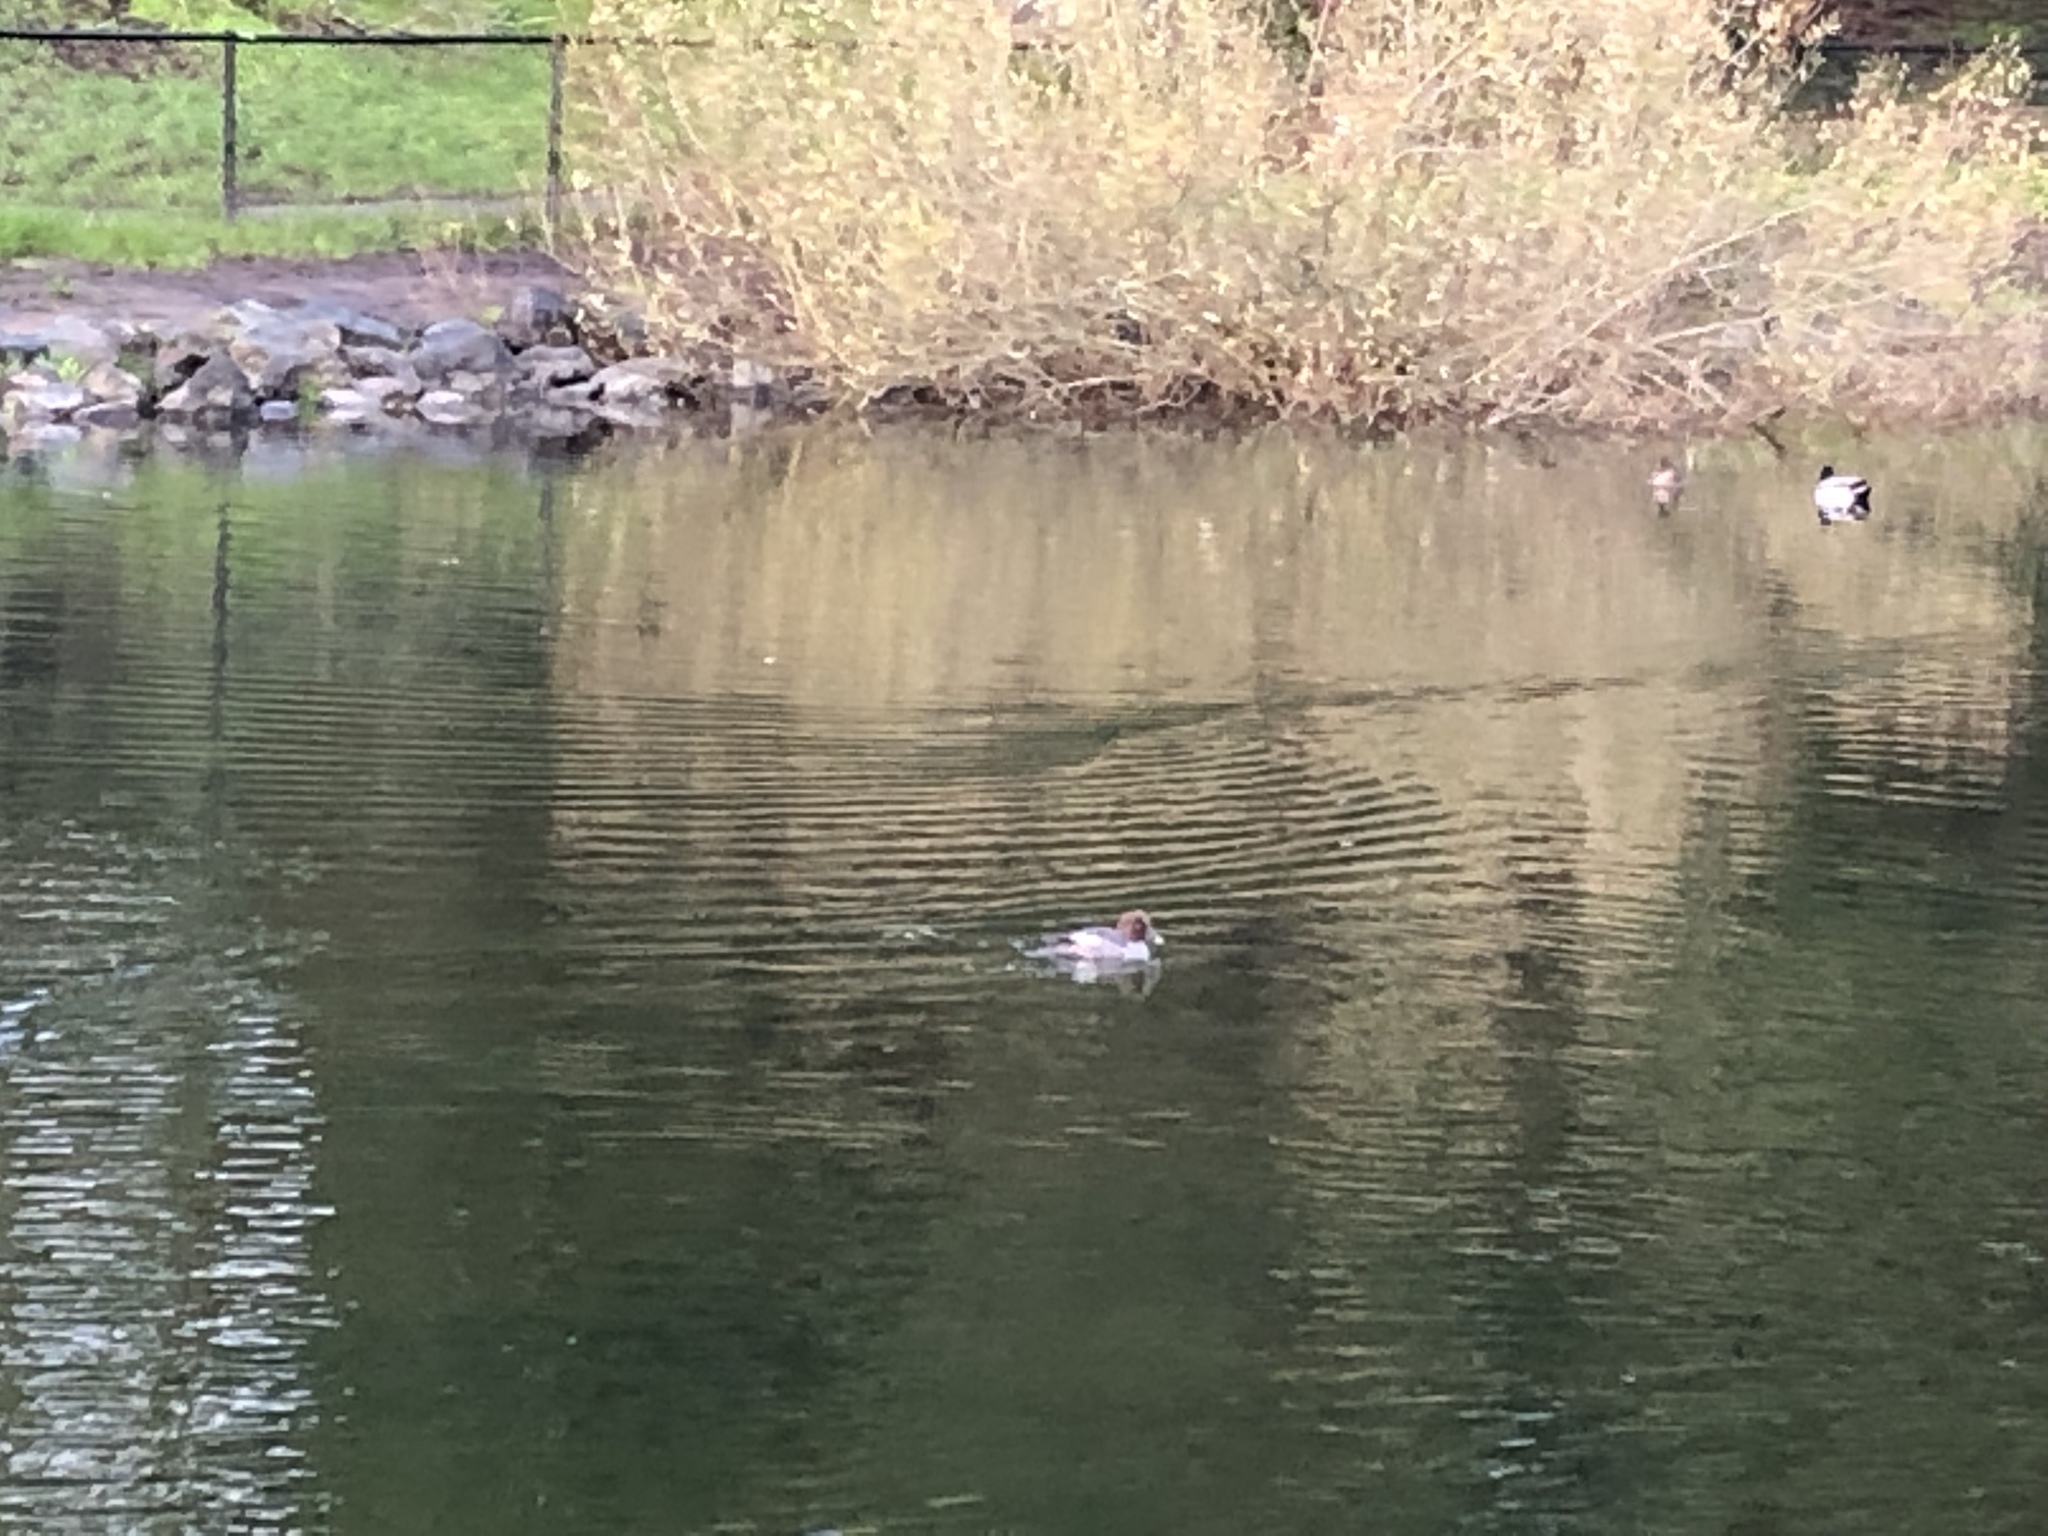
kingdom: Animalia
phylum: Chordata
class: Aves
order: Anseriformes
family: Anatidae
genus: Bucephala
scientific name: Bucephala clangula
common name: Common goldeneye
